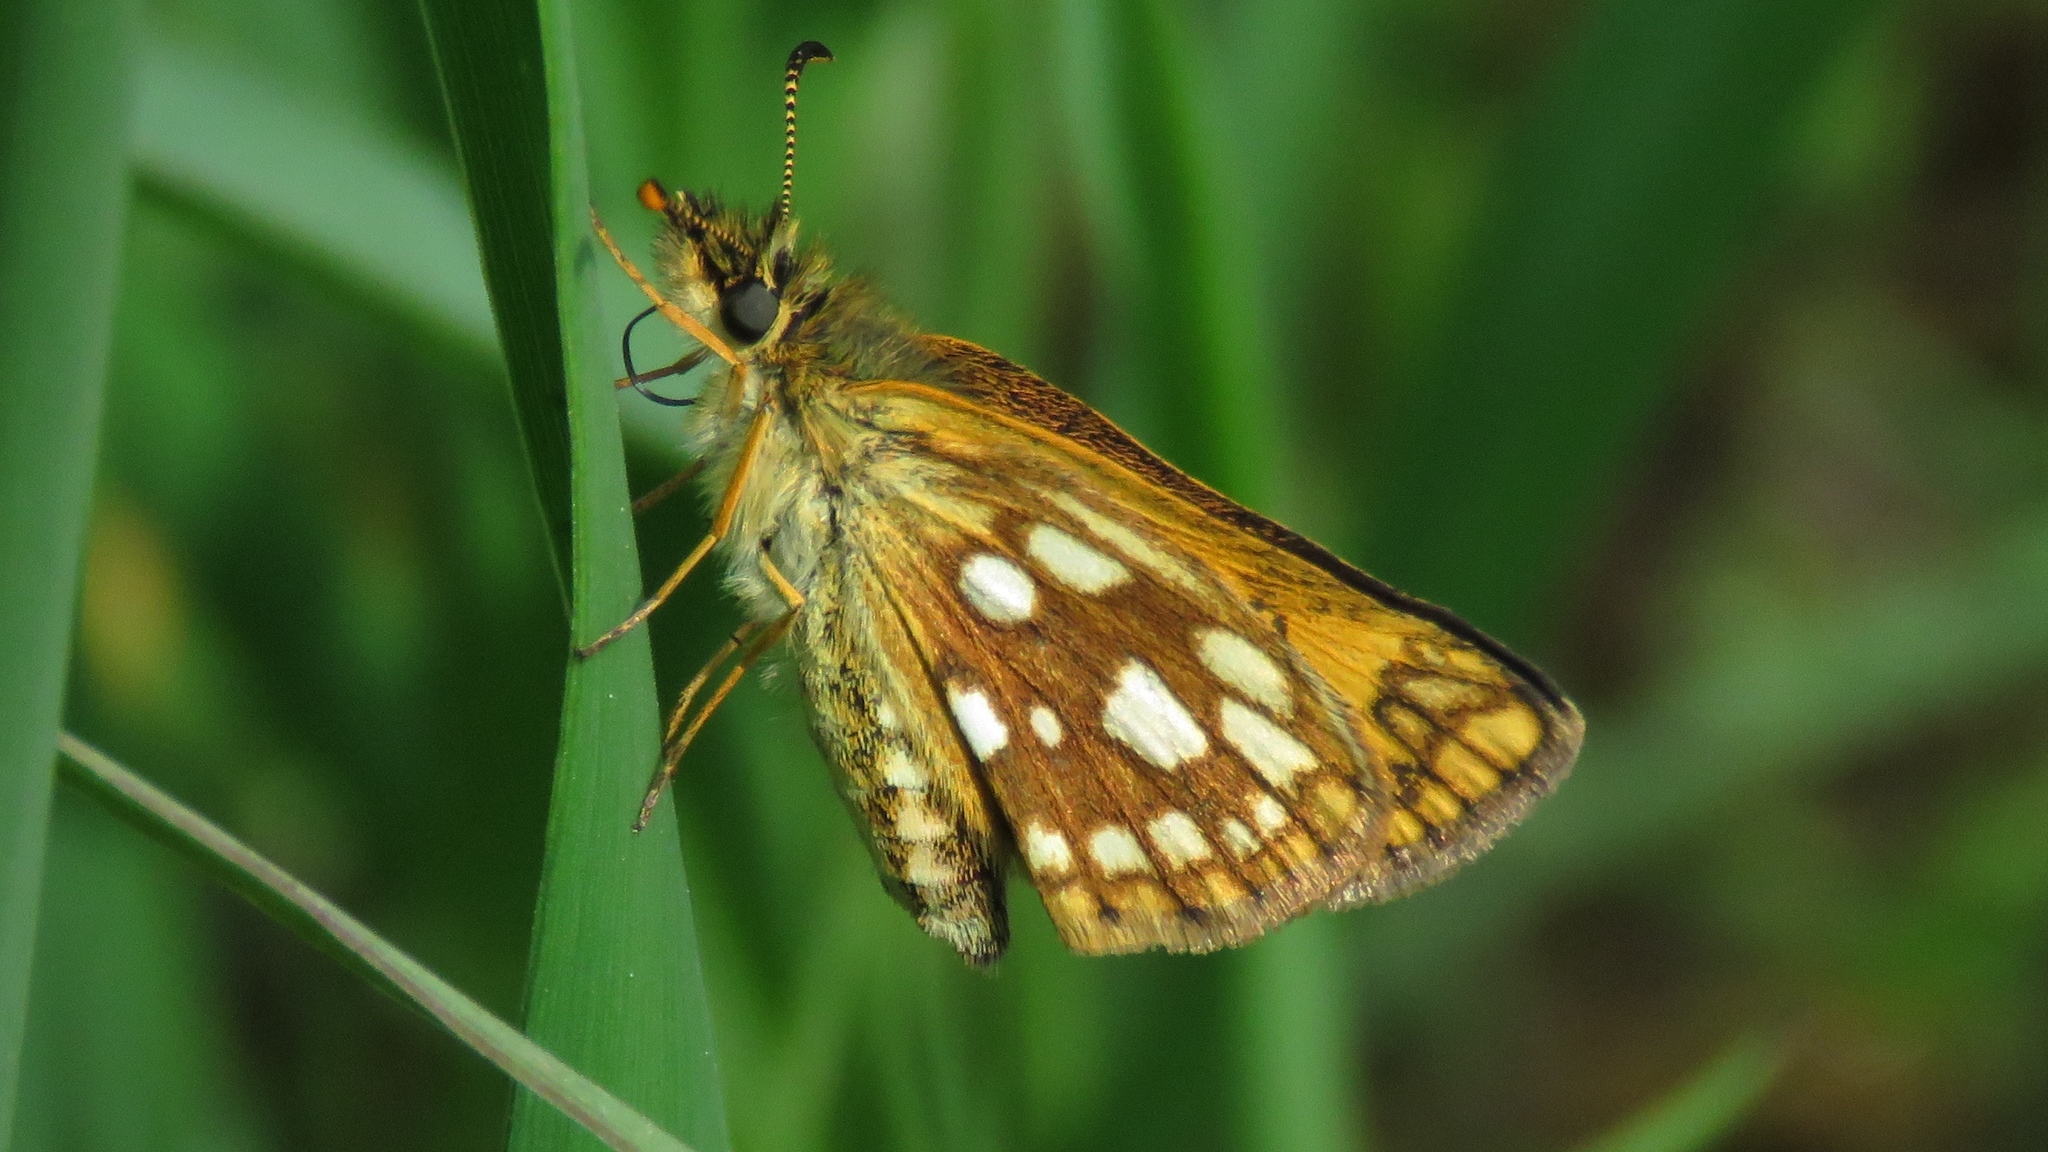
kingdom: Animalia
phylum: Arthropoda
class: Insecta
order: Lepidoptera
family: Hesperiidae
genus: Carterocephalus
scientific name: Carterocephalus mandan
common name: Arctic skipperling
